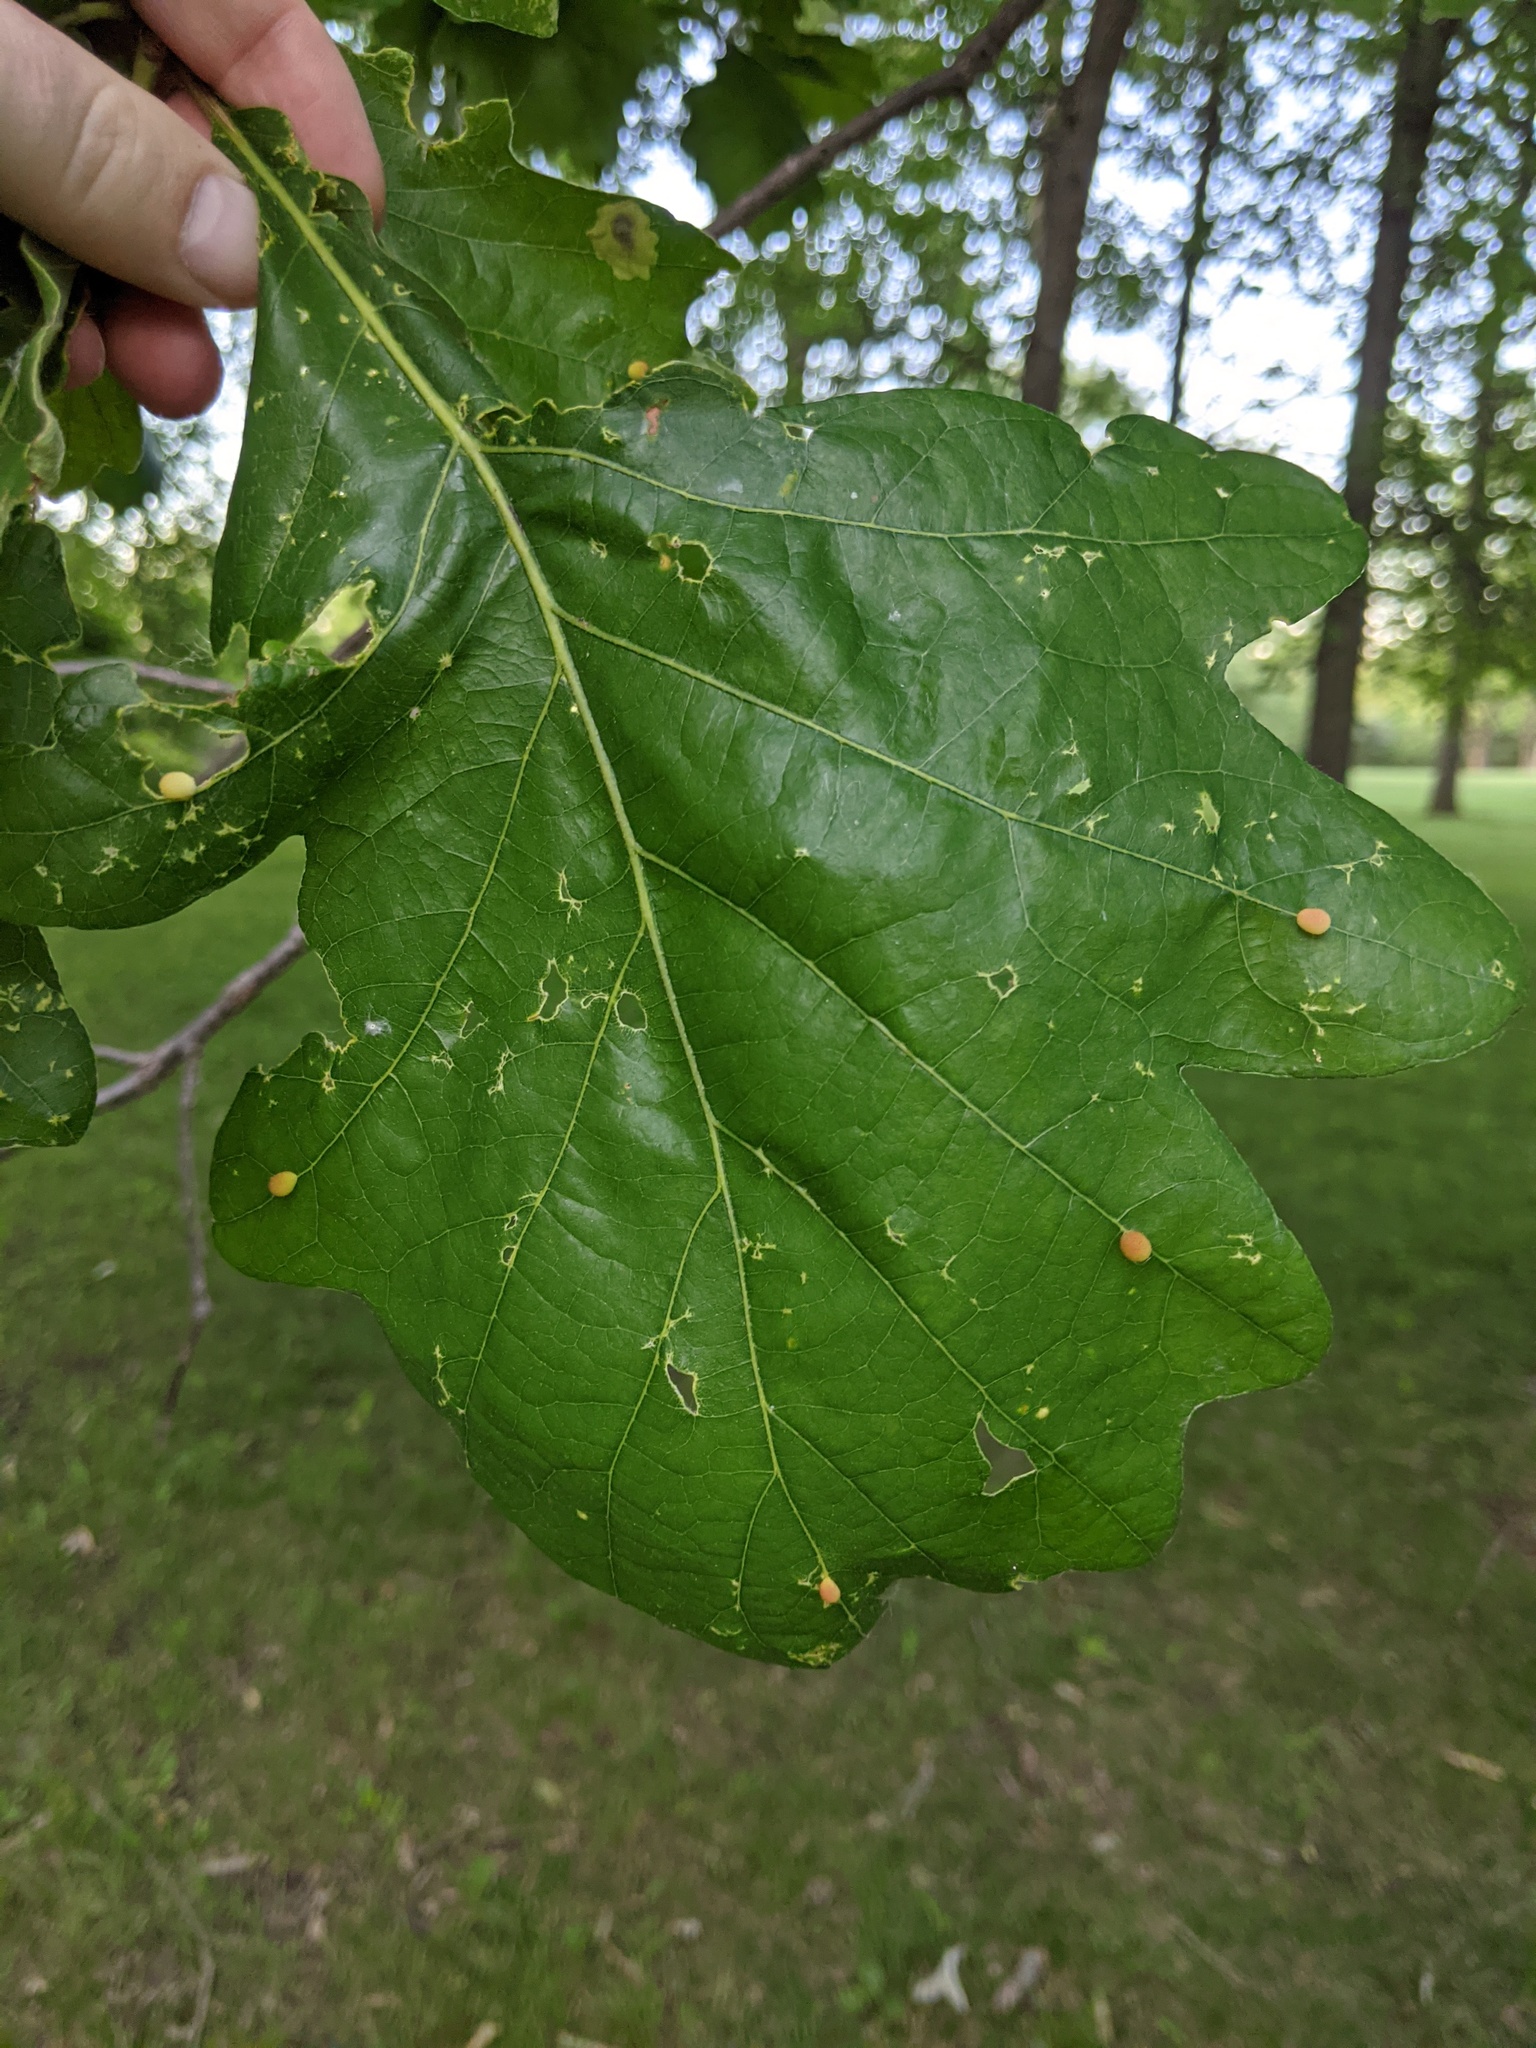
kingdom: Animalia
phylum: Arthropoda
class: Insecta
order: Hymenoptera
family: Cynipidae
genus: Acraspis
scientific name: Acraspis quercushirta
